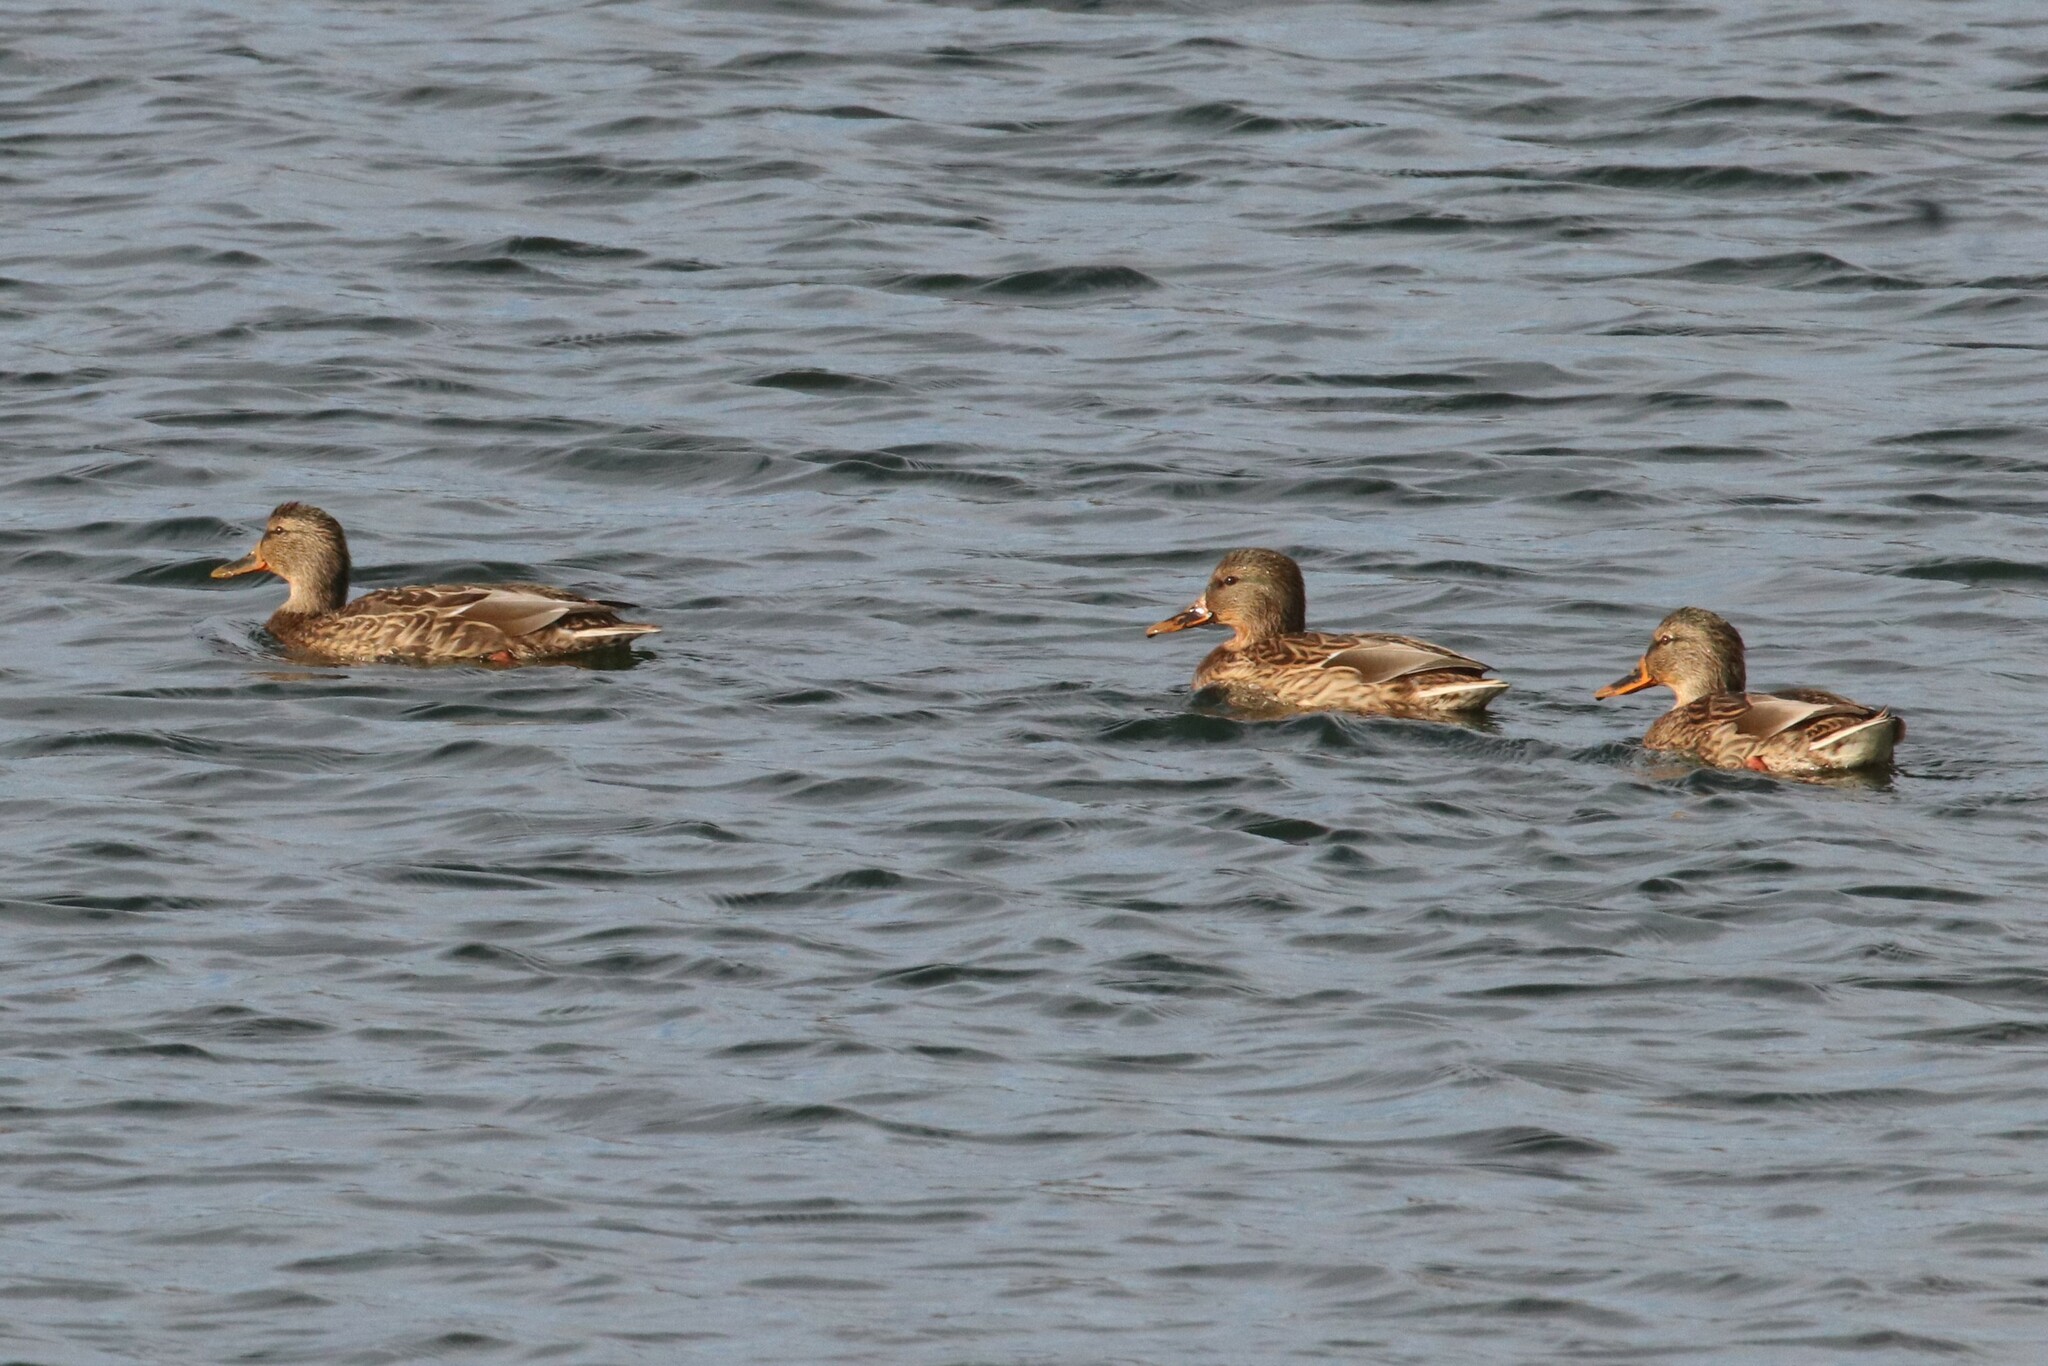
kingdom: Animalia
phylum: Chordata
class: Aves
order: Anseriformes
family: Anatidae
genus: Anas
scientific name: Anas platyrhynchos
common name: Mallard
